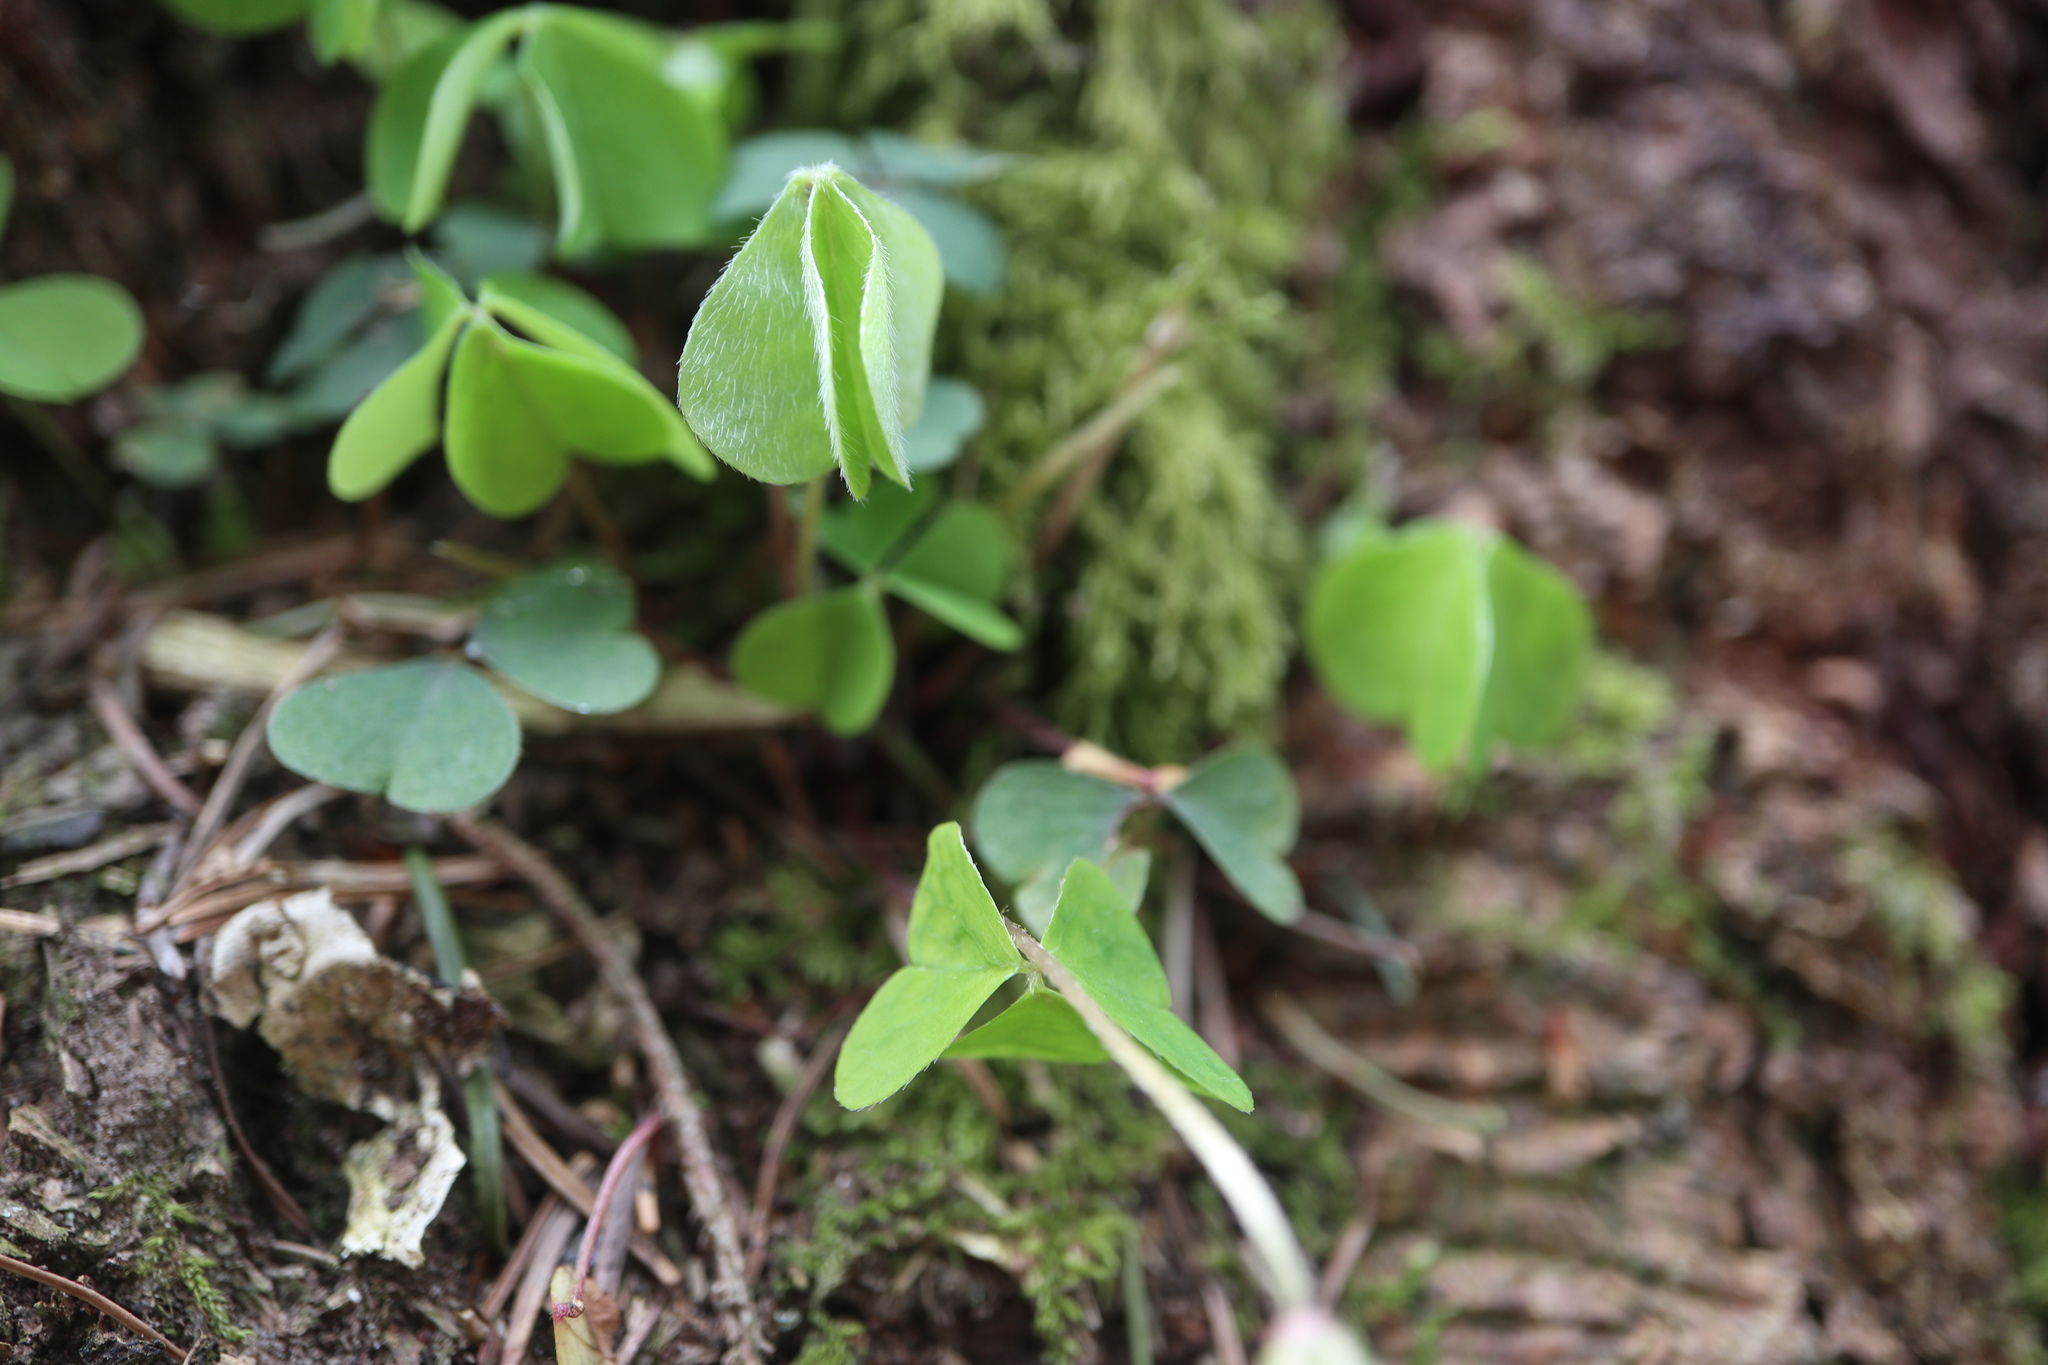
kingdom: Plantae
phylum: Tracheophyta
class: Magnoliopsida
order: Oxalidales
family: Oxalidaceae
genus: Oxalis
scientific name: Oxalis acetosella
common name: Wood-sorrel
